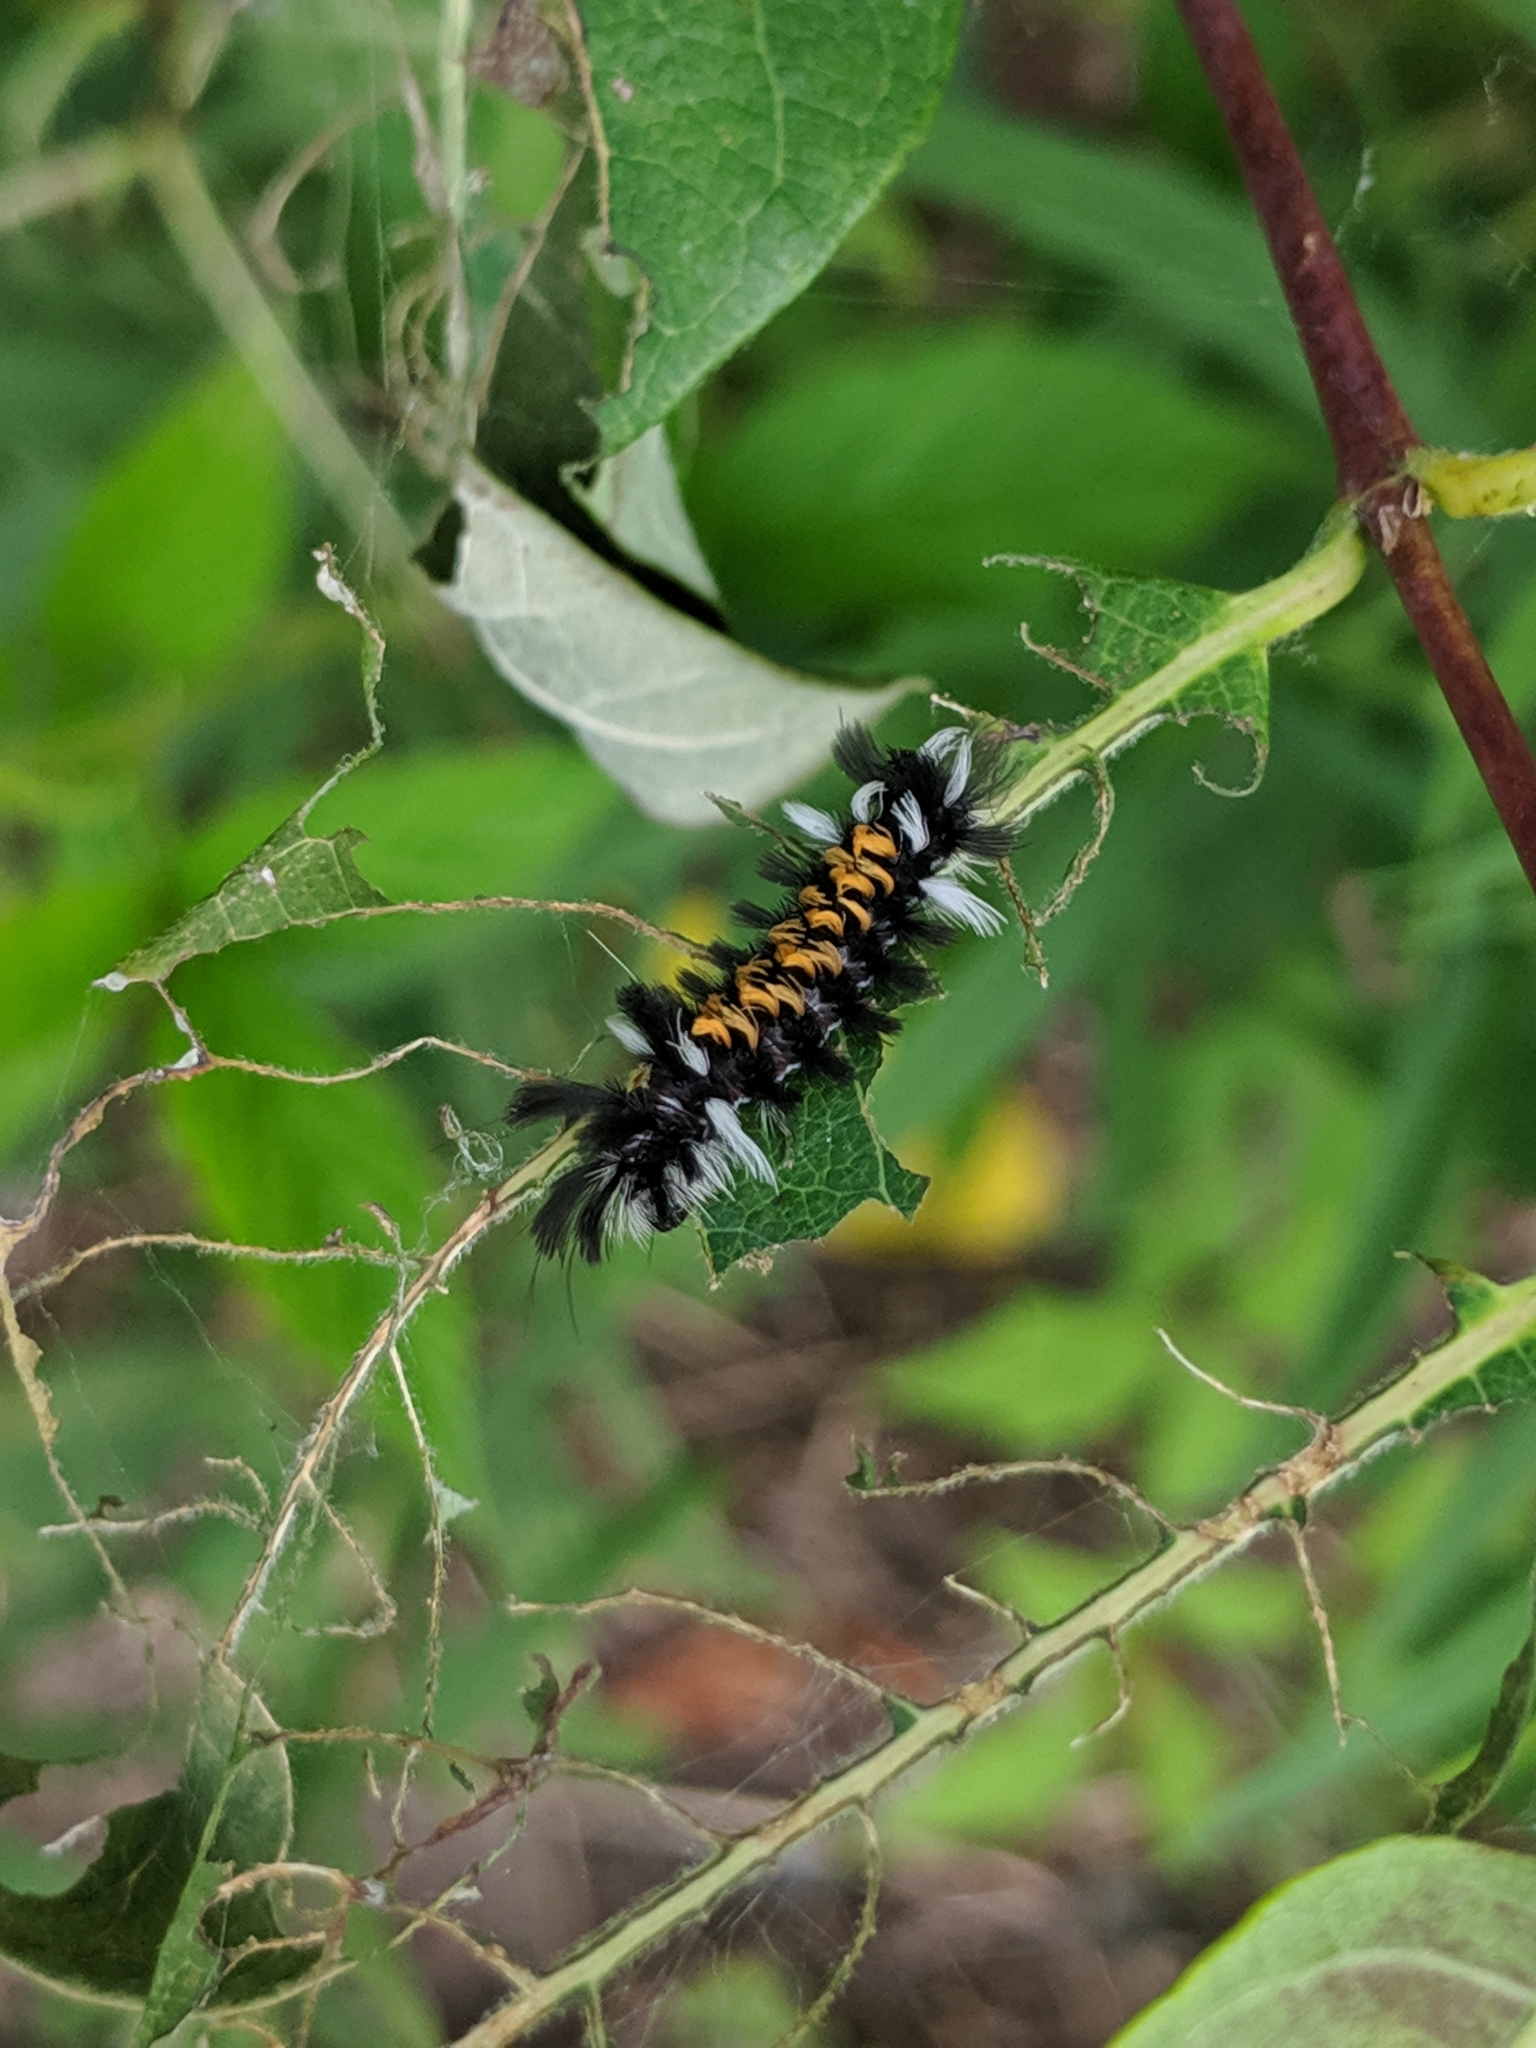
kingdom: Animalia
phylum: Arthropoda
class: Insecta
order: Lepidoptera
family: Erebidae
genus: Euchaetes
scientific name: Euchaetes egle
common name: Milkweed tussock moth
